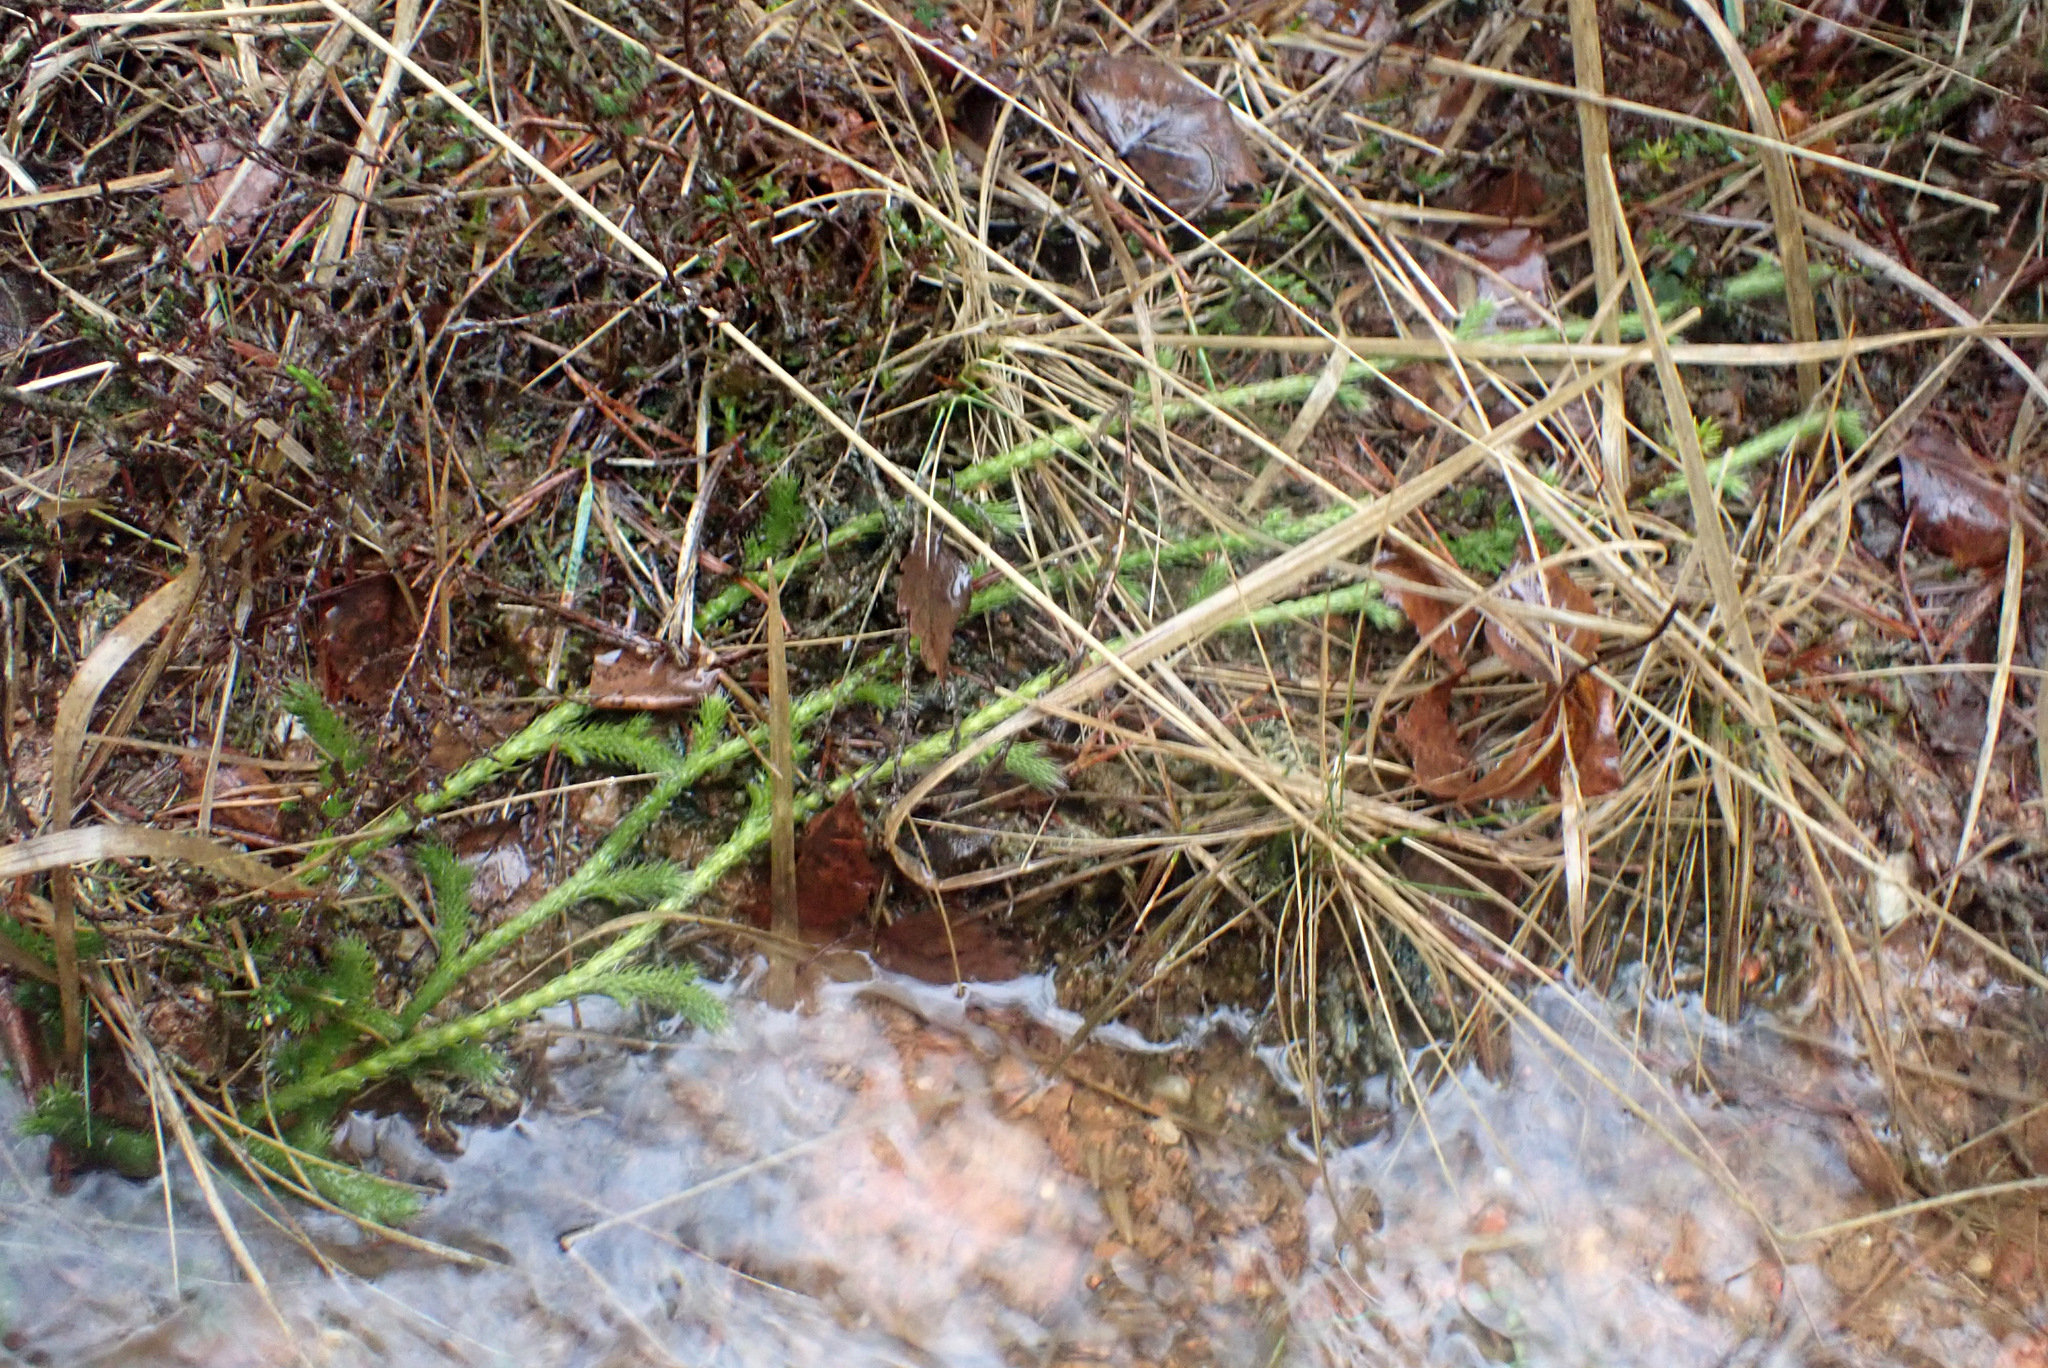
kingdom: Plantae
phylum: Tracheophyta
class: Lycopodiopsida
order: Lycopodiales
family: Lycopodiaceae
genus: Lycopodium
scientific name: Lycopodium clavatum
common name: Stag's-horn clubmoss
